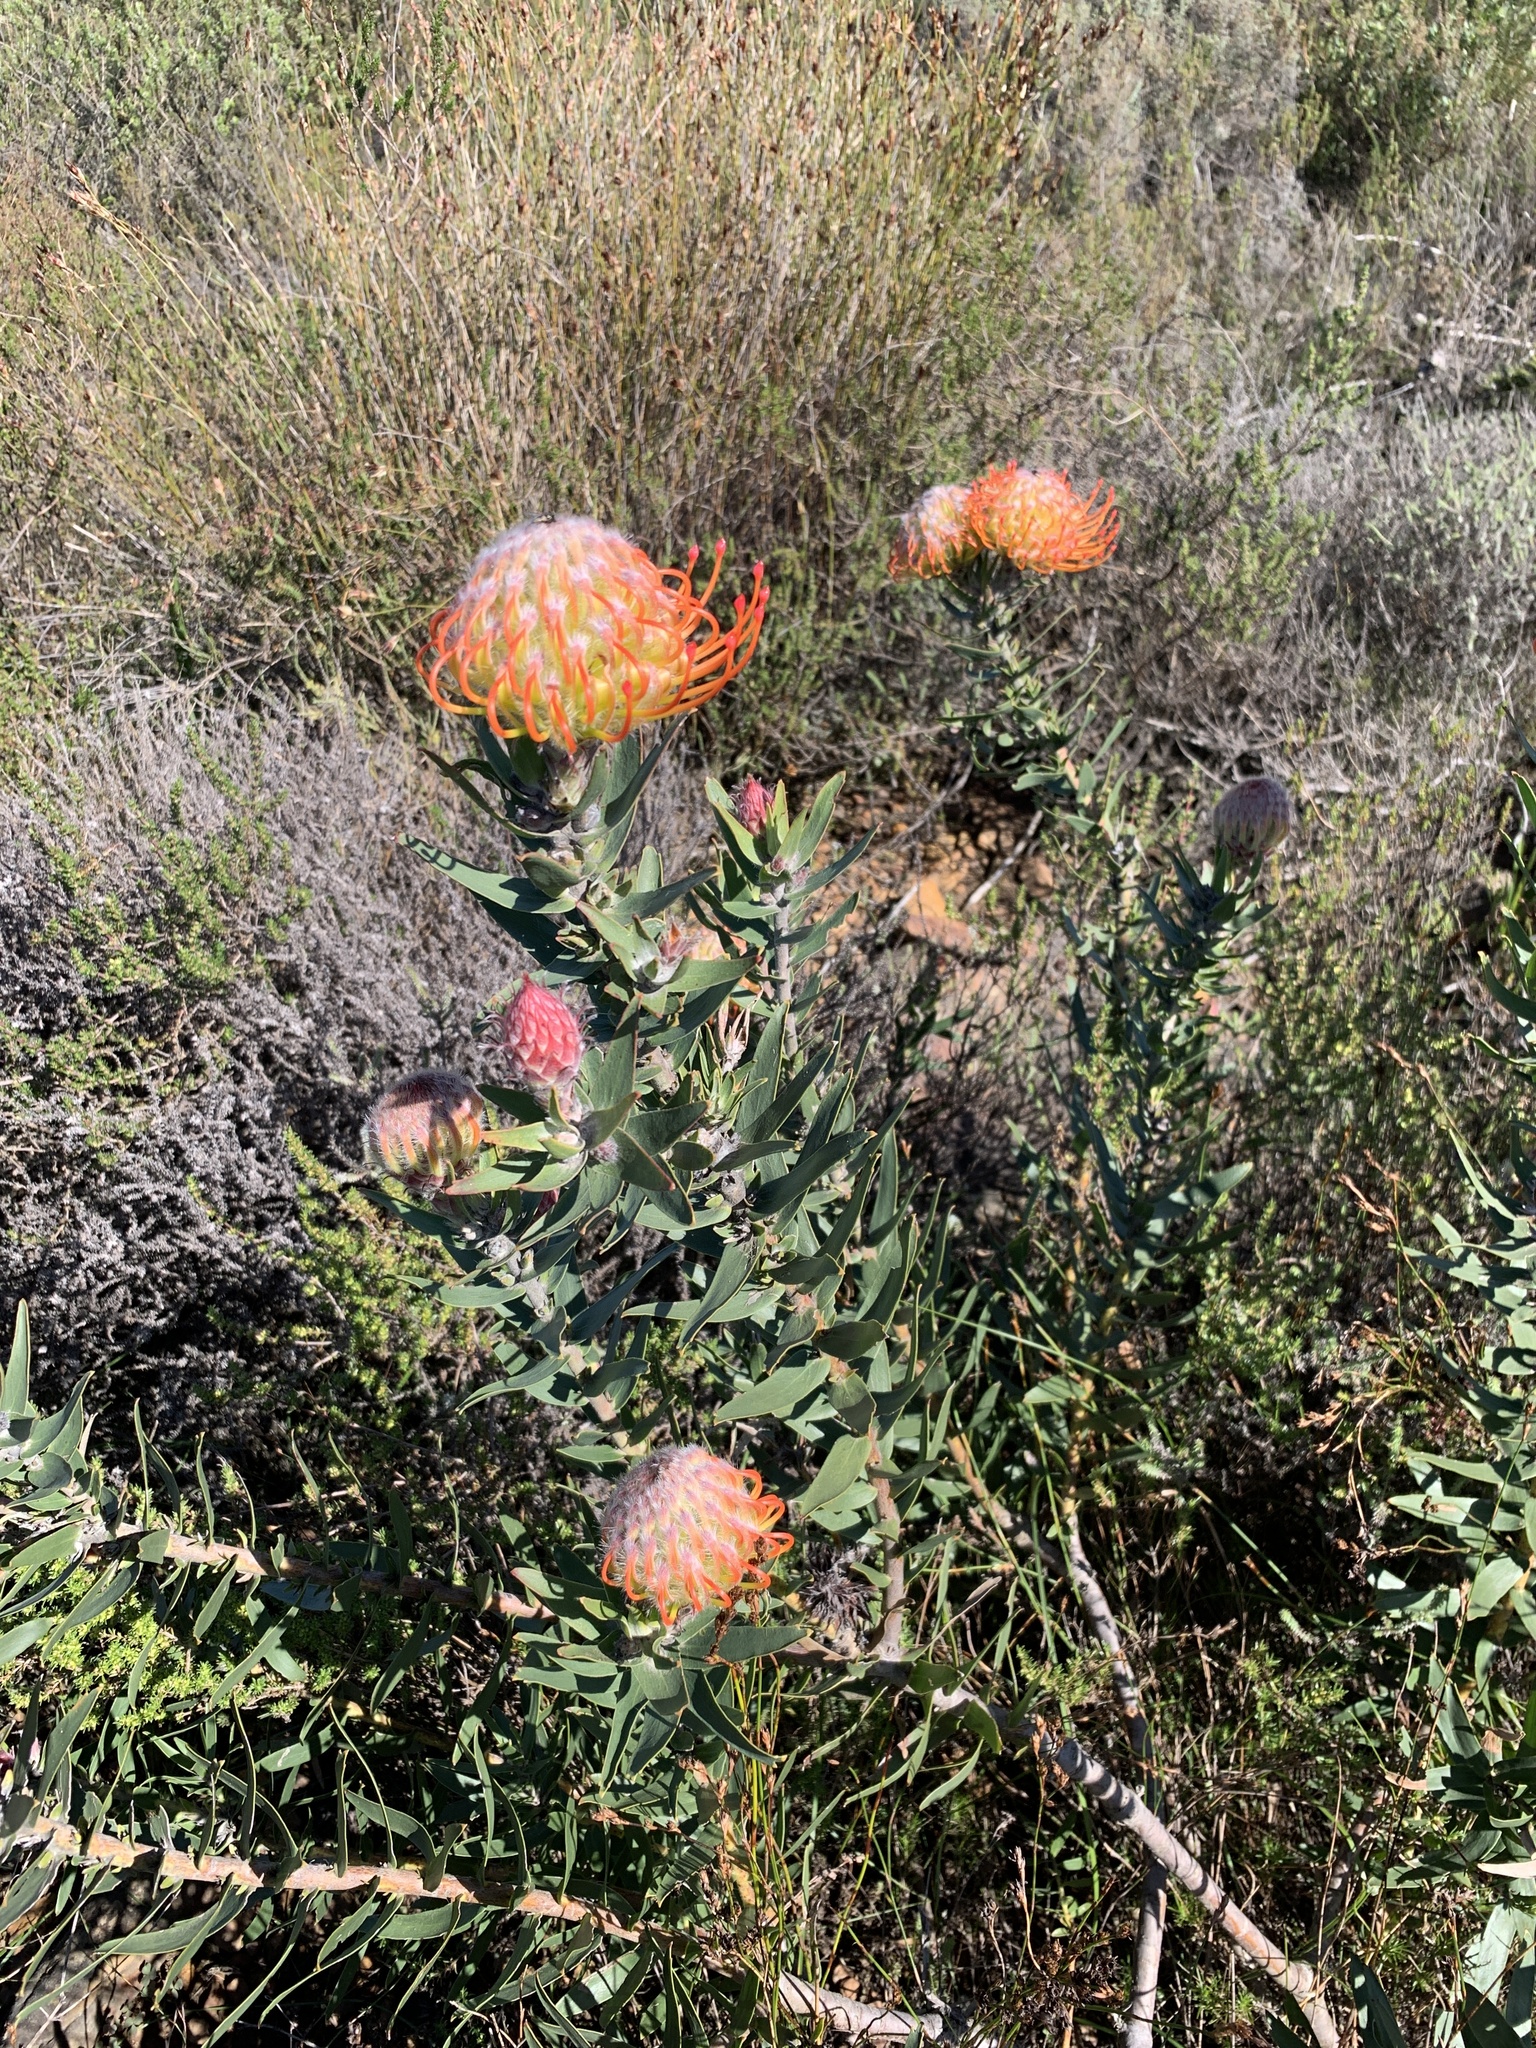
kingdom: Plantae
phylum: Tracheophyta
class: Magnoliopsida
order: Proteales
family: Proteaceae
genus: Leucospermum
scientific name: Leucospermum vestitum
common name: Silky-hair pincushion
